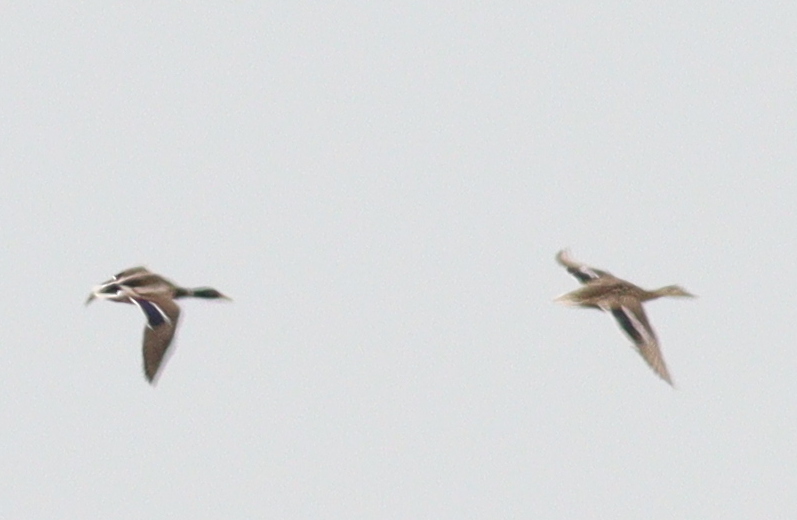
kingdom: Animalia
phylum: Chordata
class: Aves
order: Anseriformes
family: Anatidae
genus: Anas
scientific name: Anas platyrhynchos
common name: Mallard
